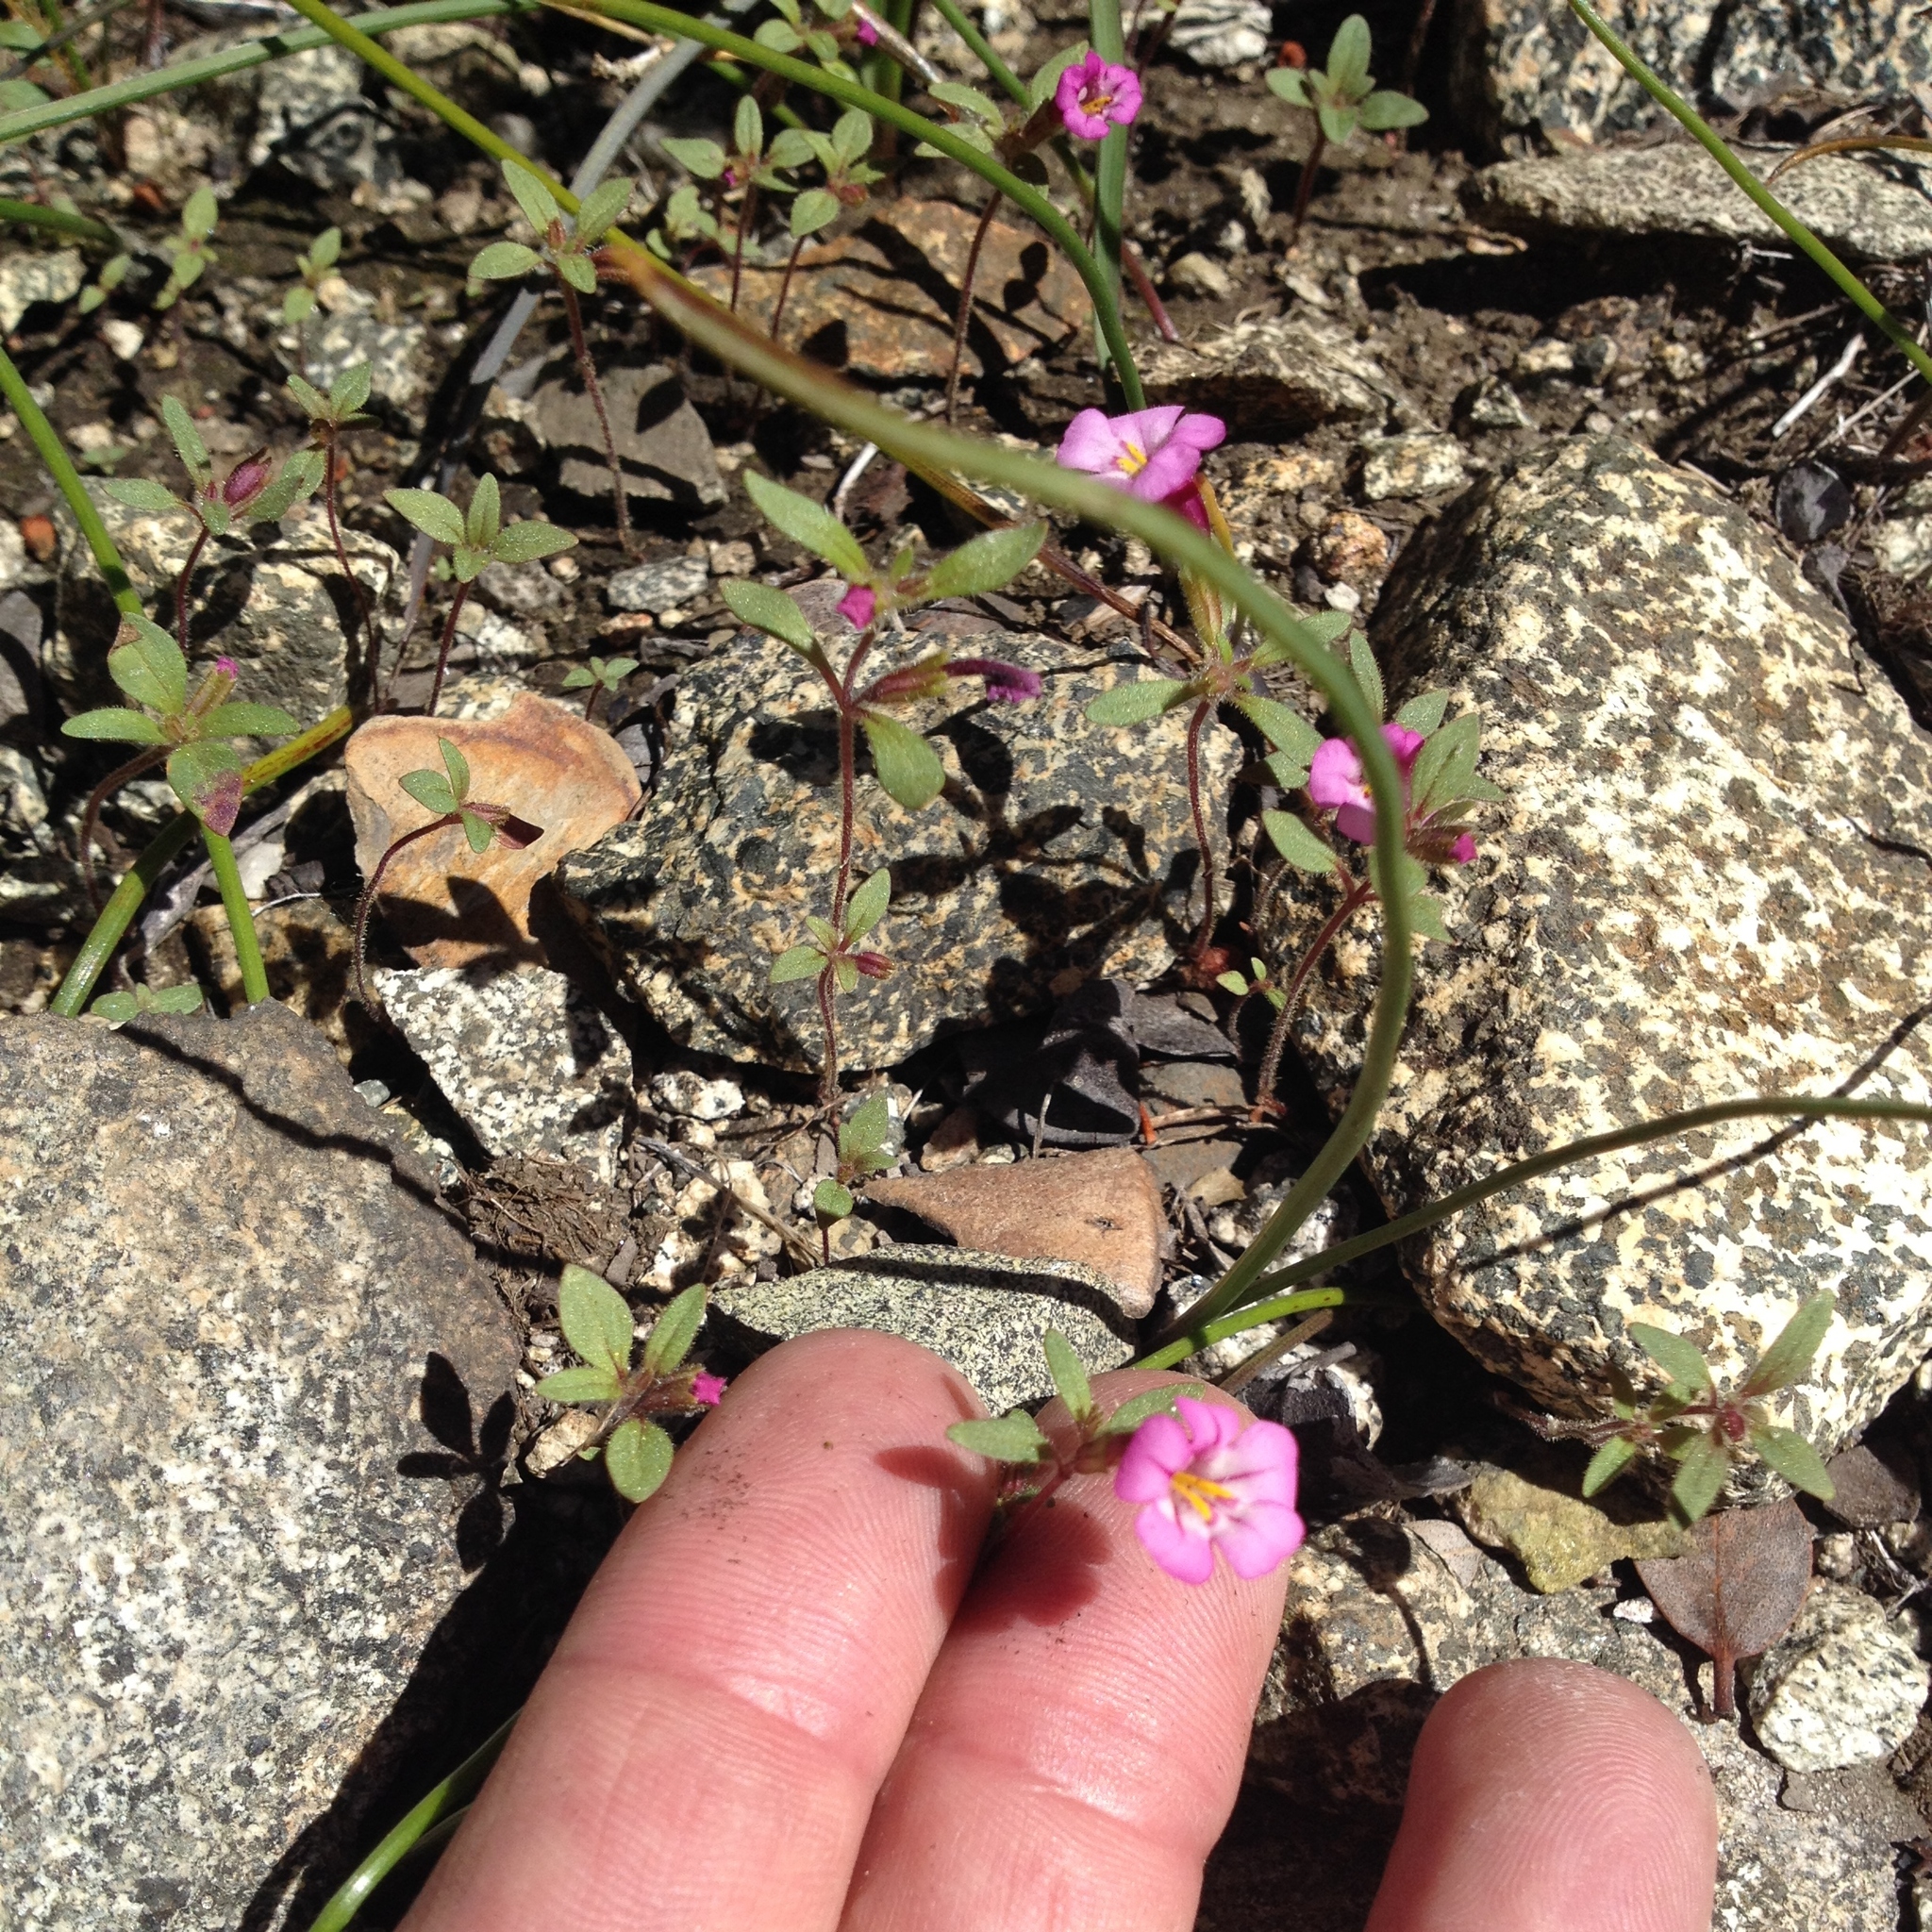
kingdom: Plantae
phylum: Tracheophyta
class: Magnoliopsida
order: Lamiales
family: Phrymaceae
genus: Diplacus
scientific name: Diplacus torreyi
